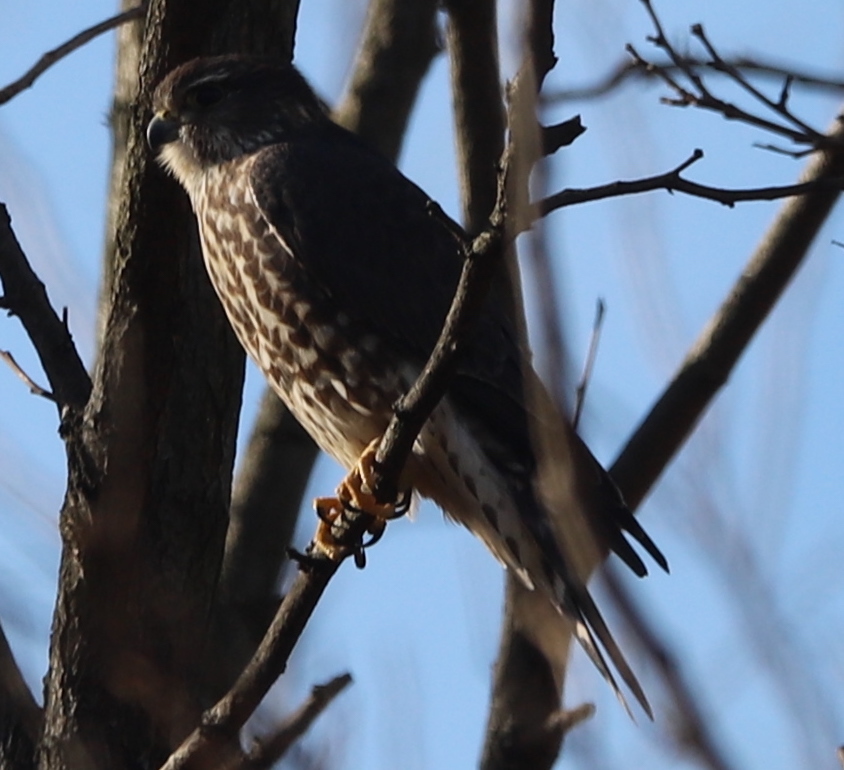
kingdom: Animalia
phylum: Chordata
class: Aves
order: Falconiformes
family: Falconidae
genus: Falco
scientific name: Falco columbarius
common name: Merlin
